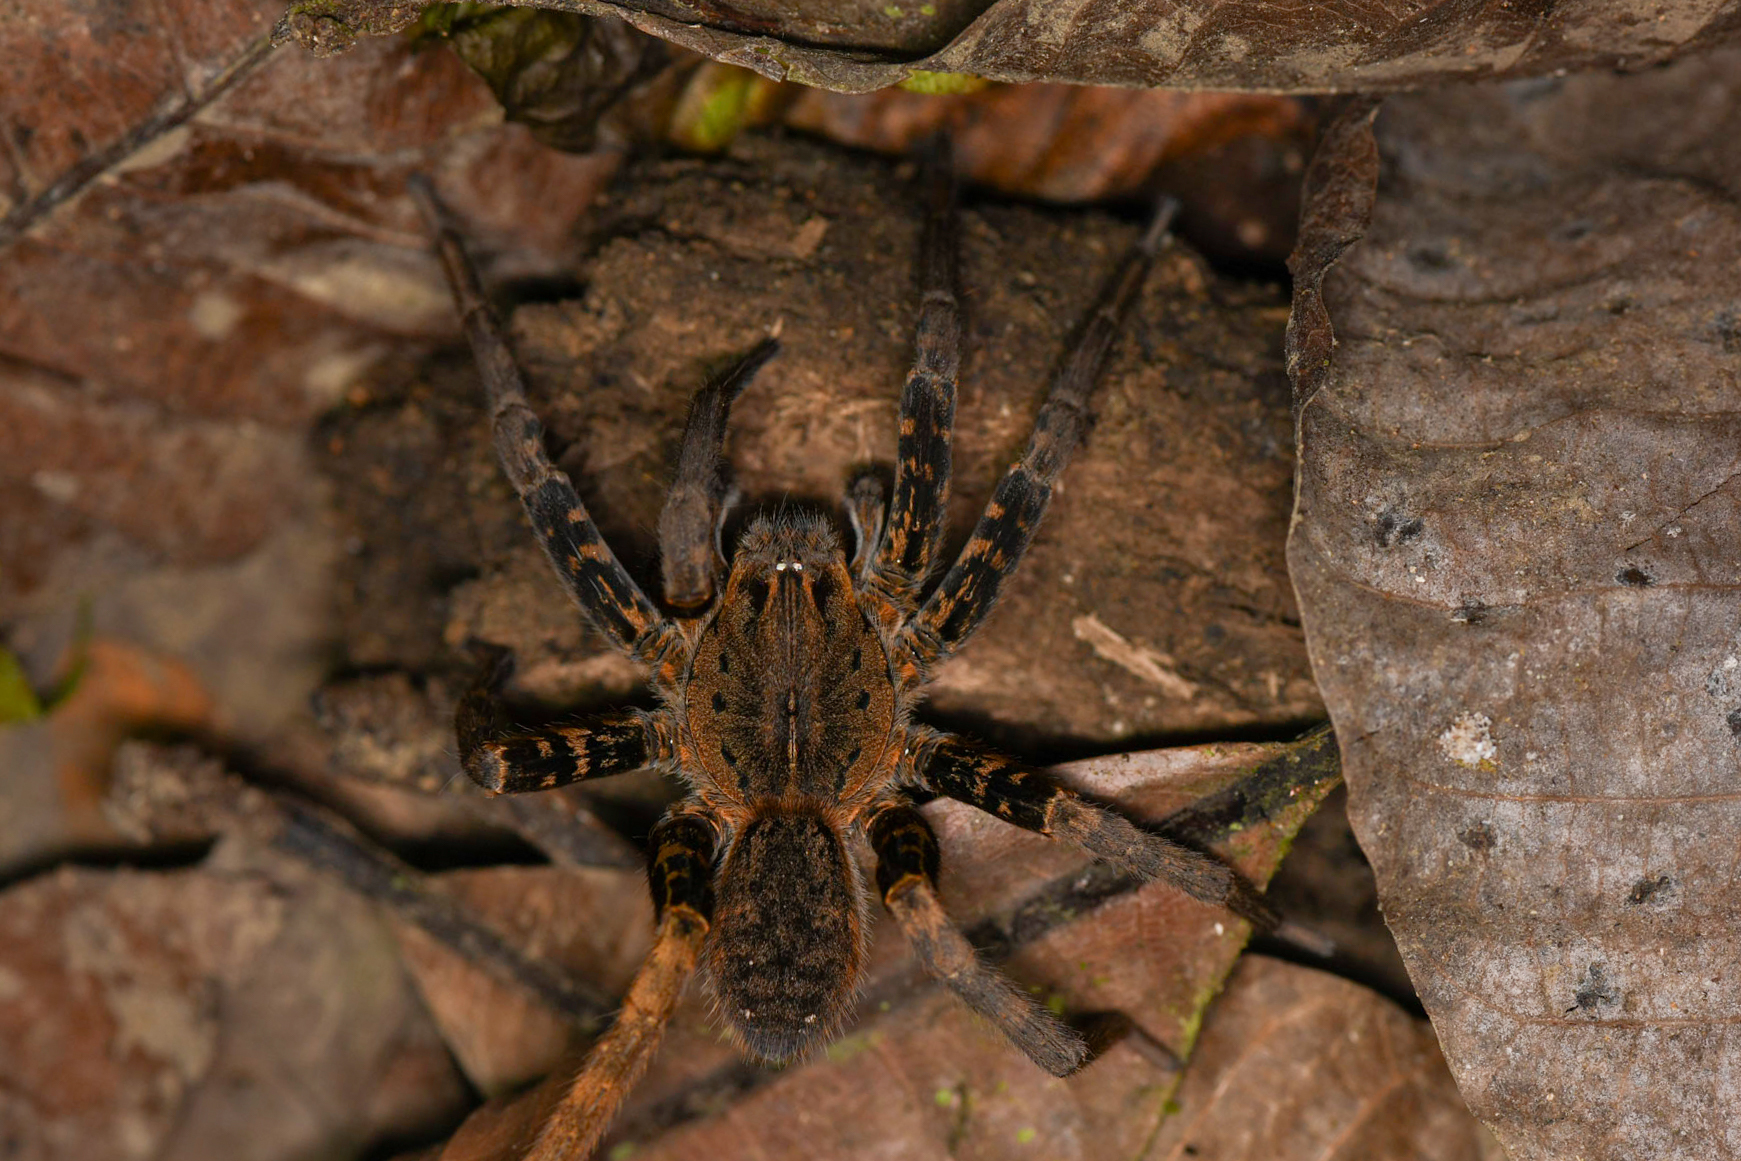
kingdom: Animalia
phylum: Arthropoda
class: Arachnida
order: Araneae
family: Ctenidae
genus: Ancylometes
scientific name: Ancylometes bogotensis
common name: Wandering spiders
